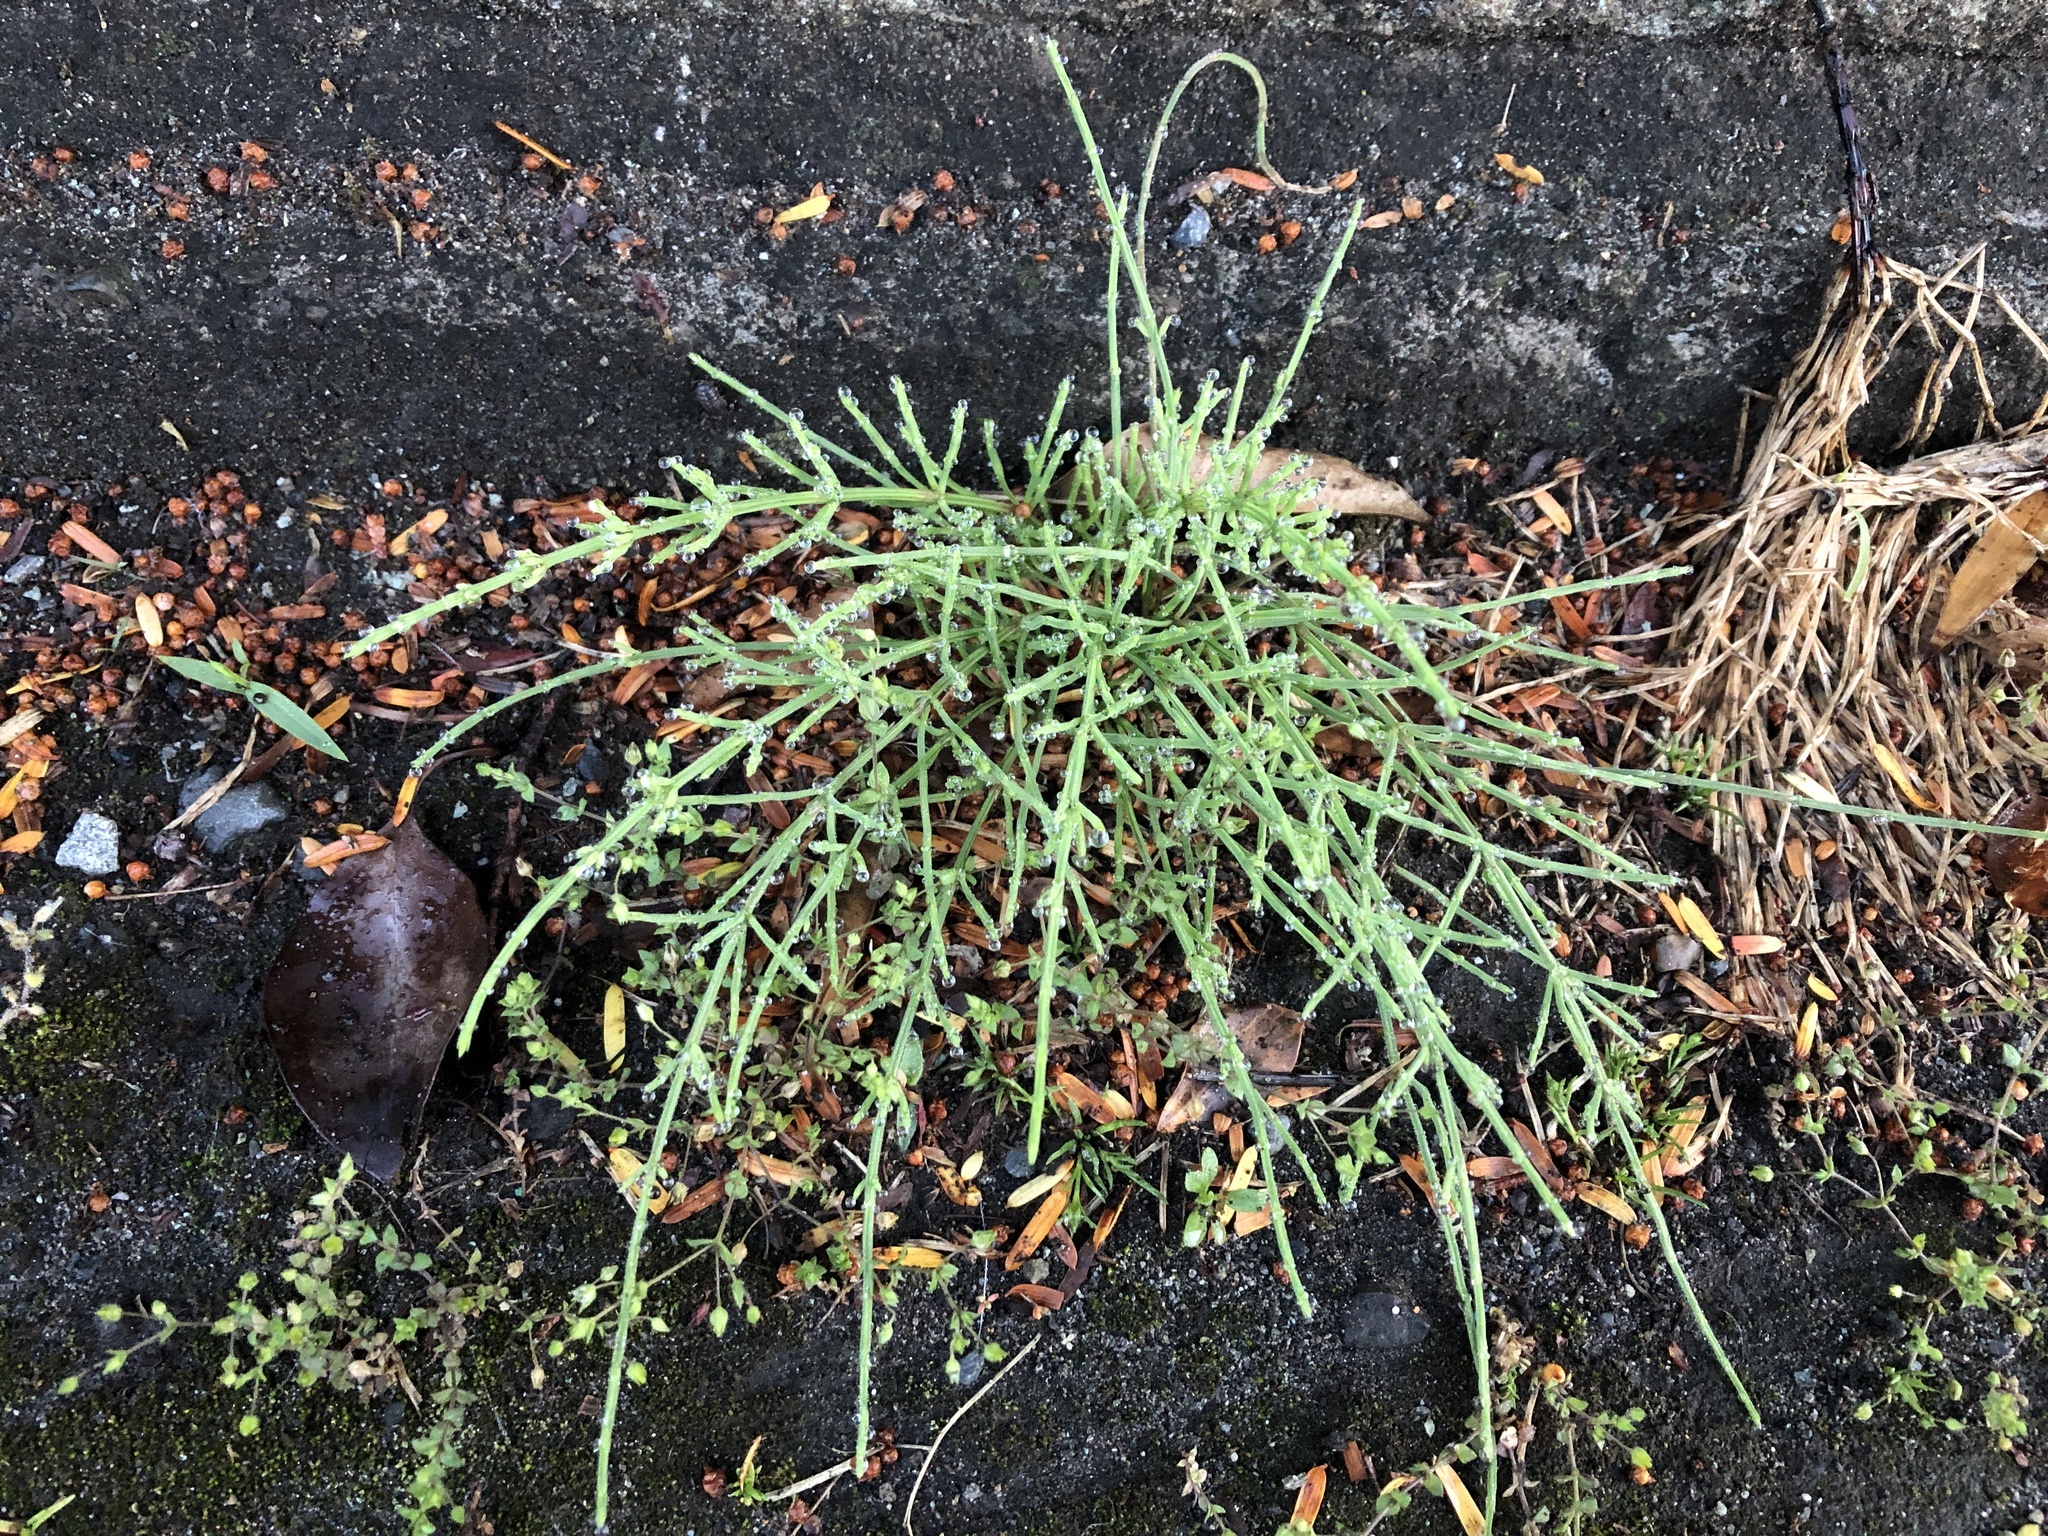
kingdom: Plantae
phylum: Tracheophyta
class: Polypodiopsida
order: Equisetales
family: Equisetaceae
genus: Equisetum
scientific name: Equisetum arvense
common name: Field horsetail
